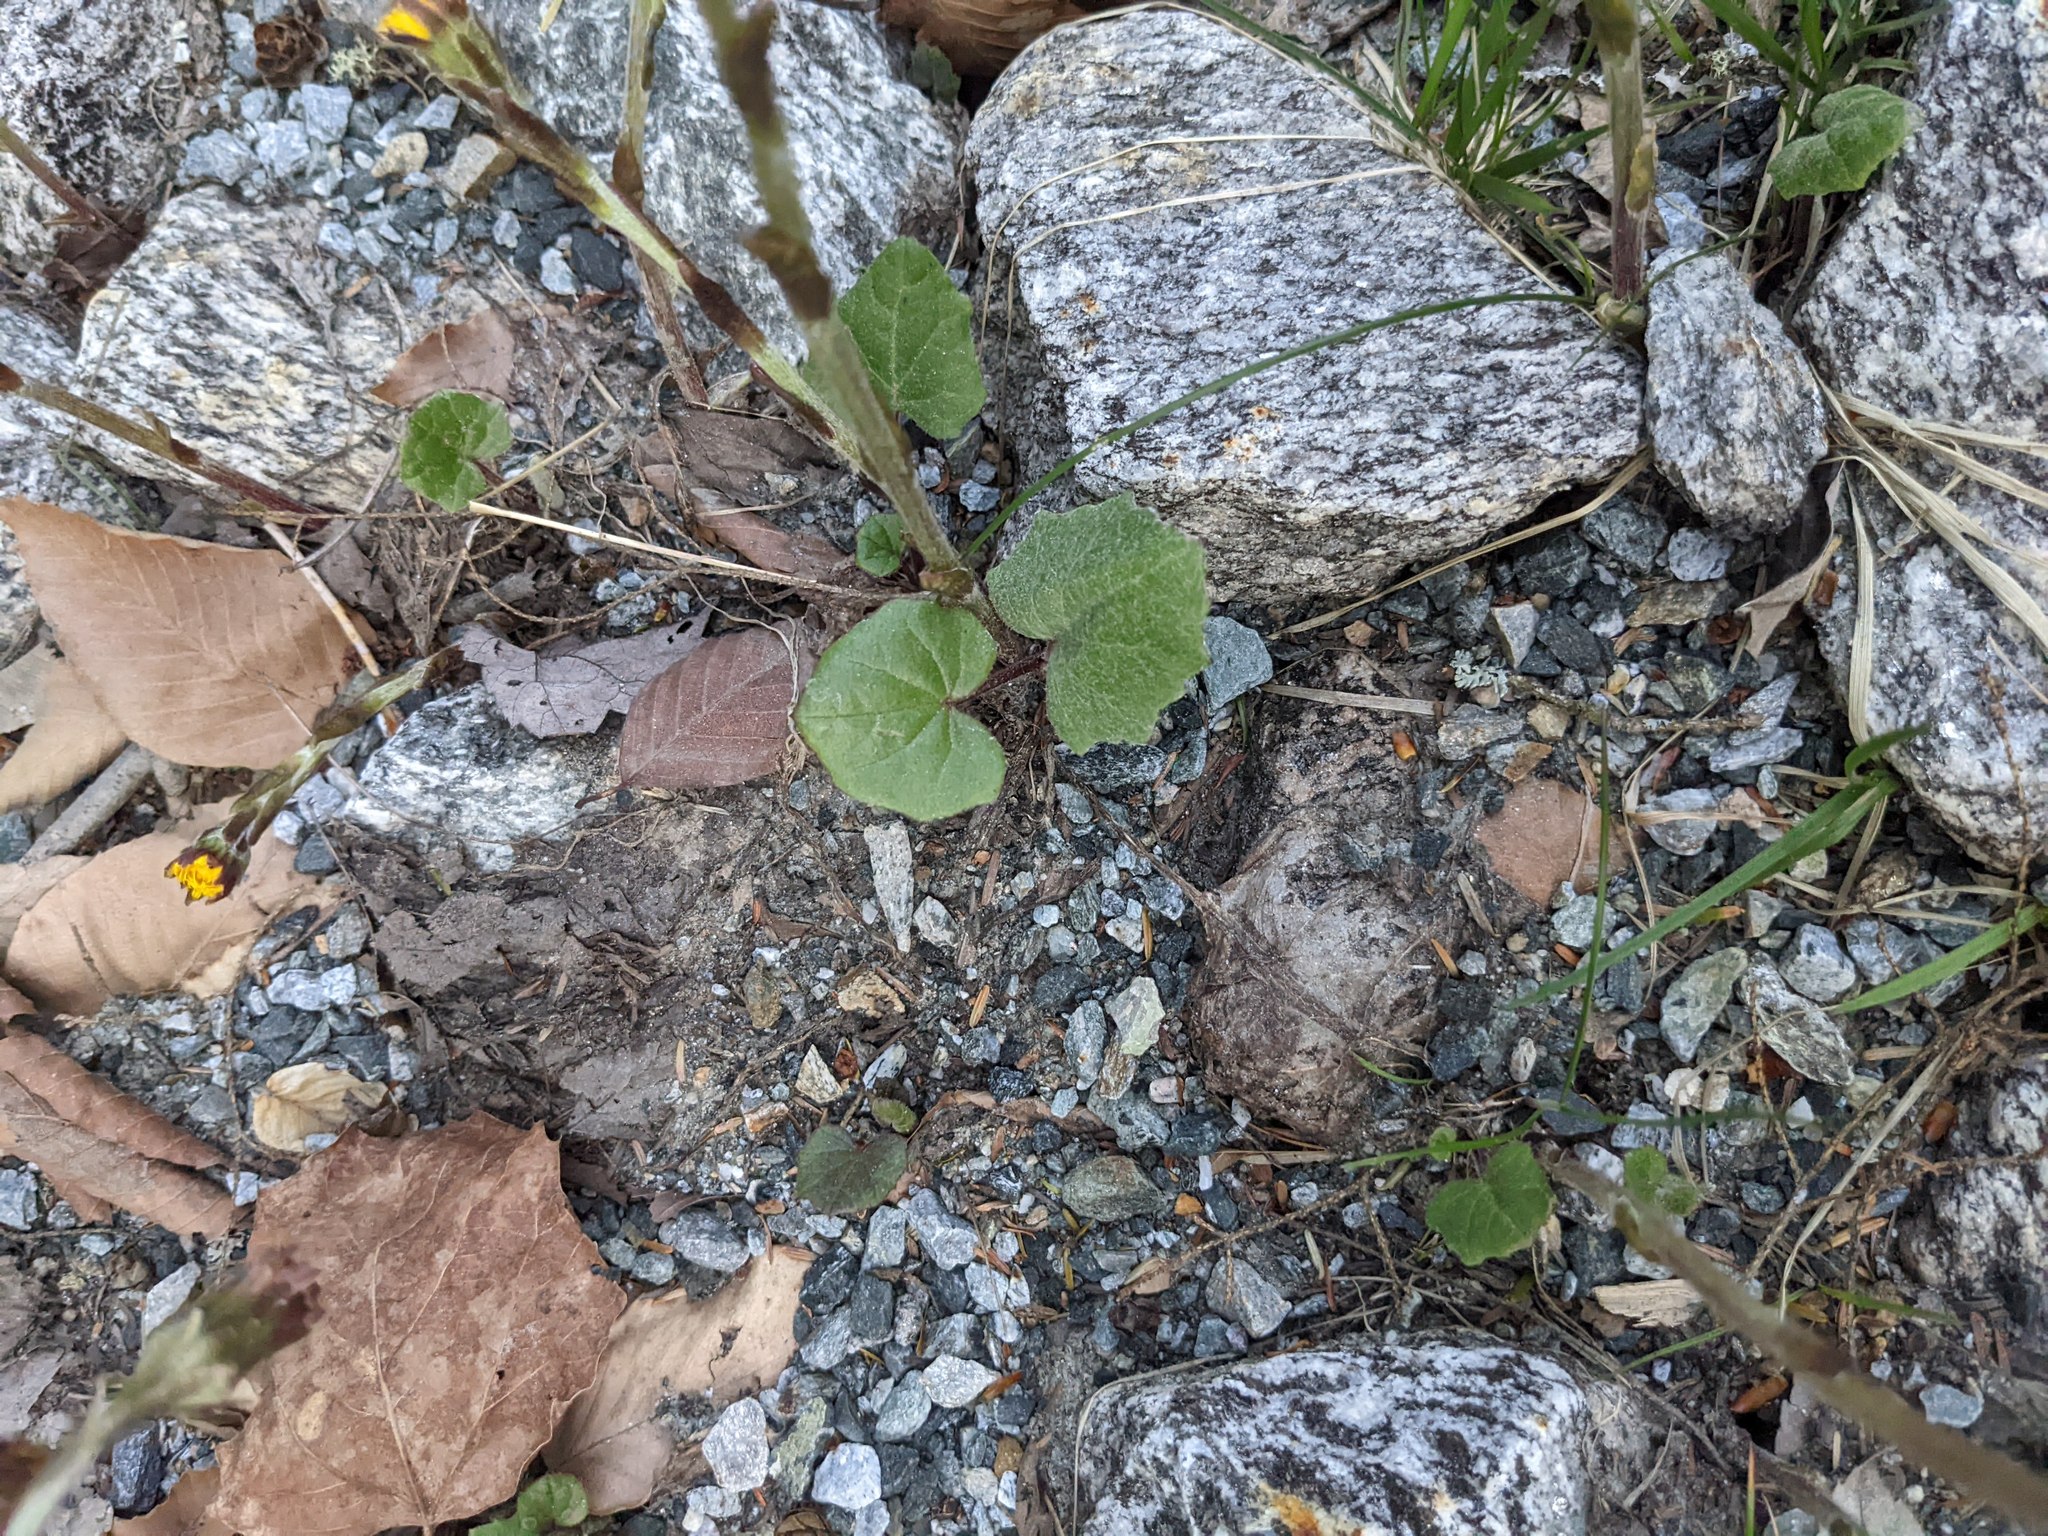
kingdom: Plantae
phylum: Tracheophyta
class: Magnoliopsida
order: Asterales
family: Asteraceae
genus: Tussilago
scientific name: Tussilago farfara
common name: Coltsfoot
